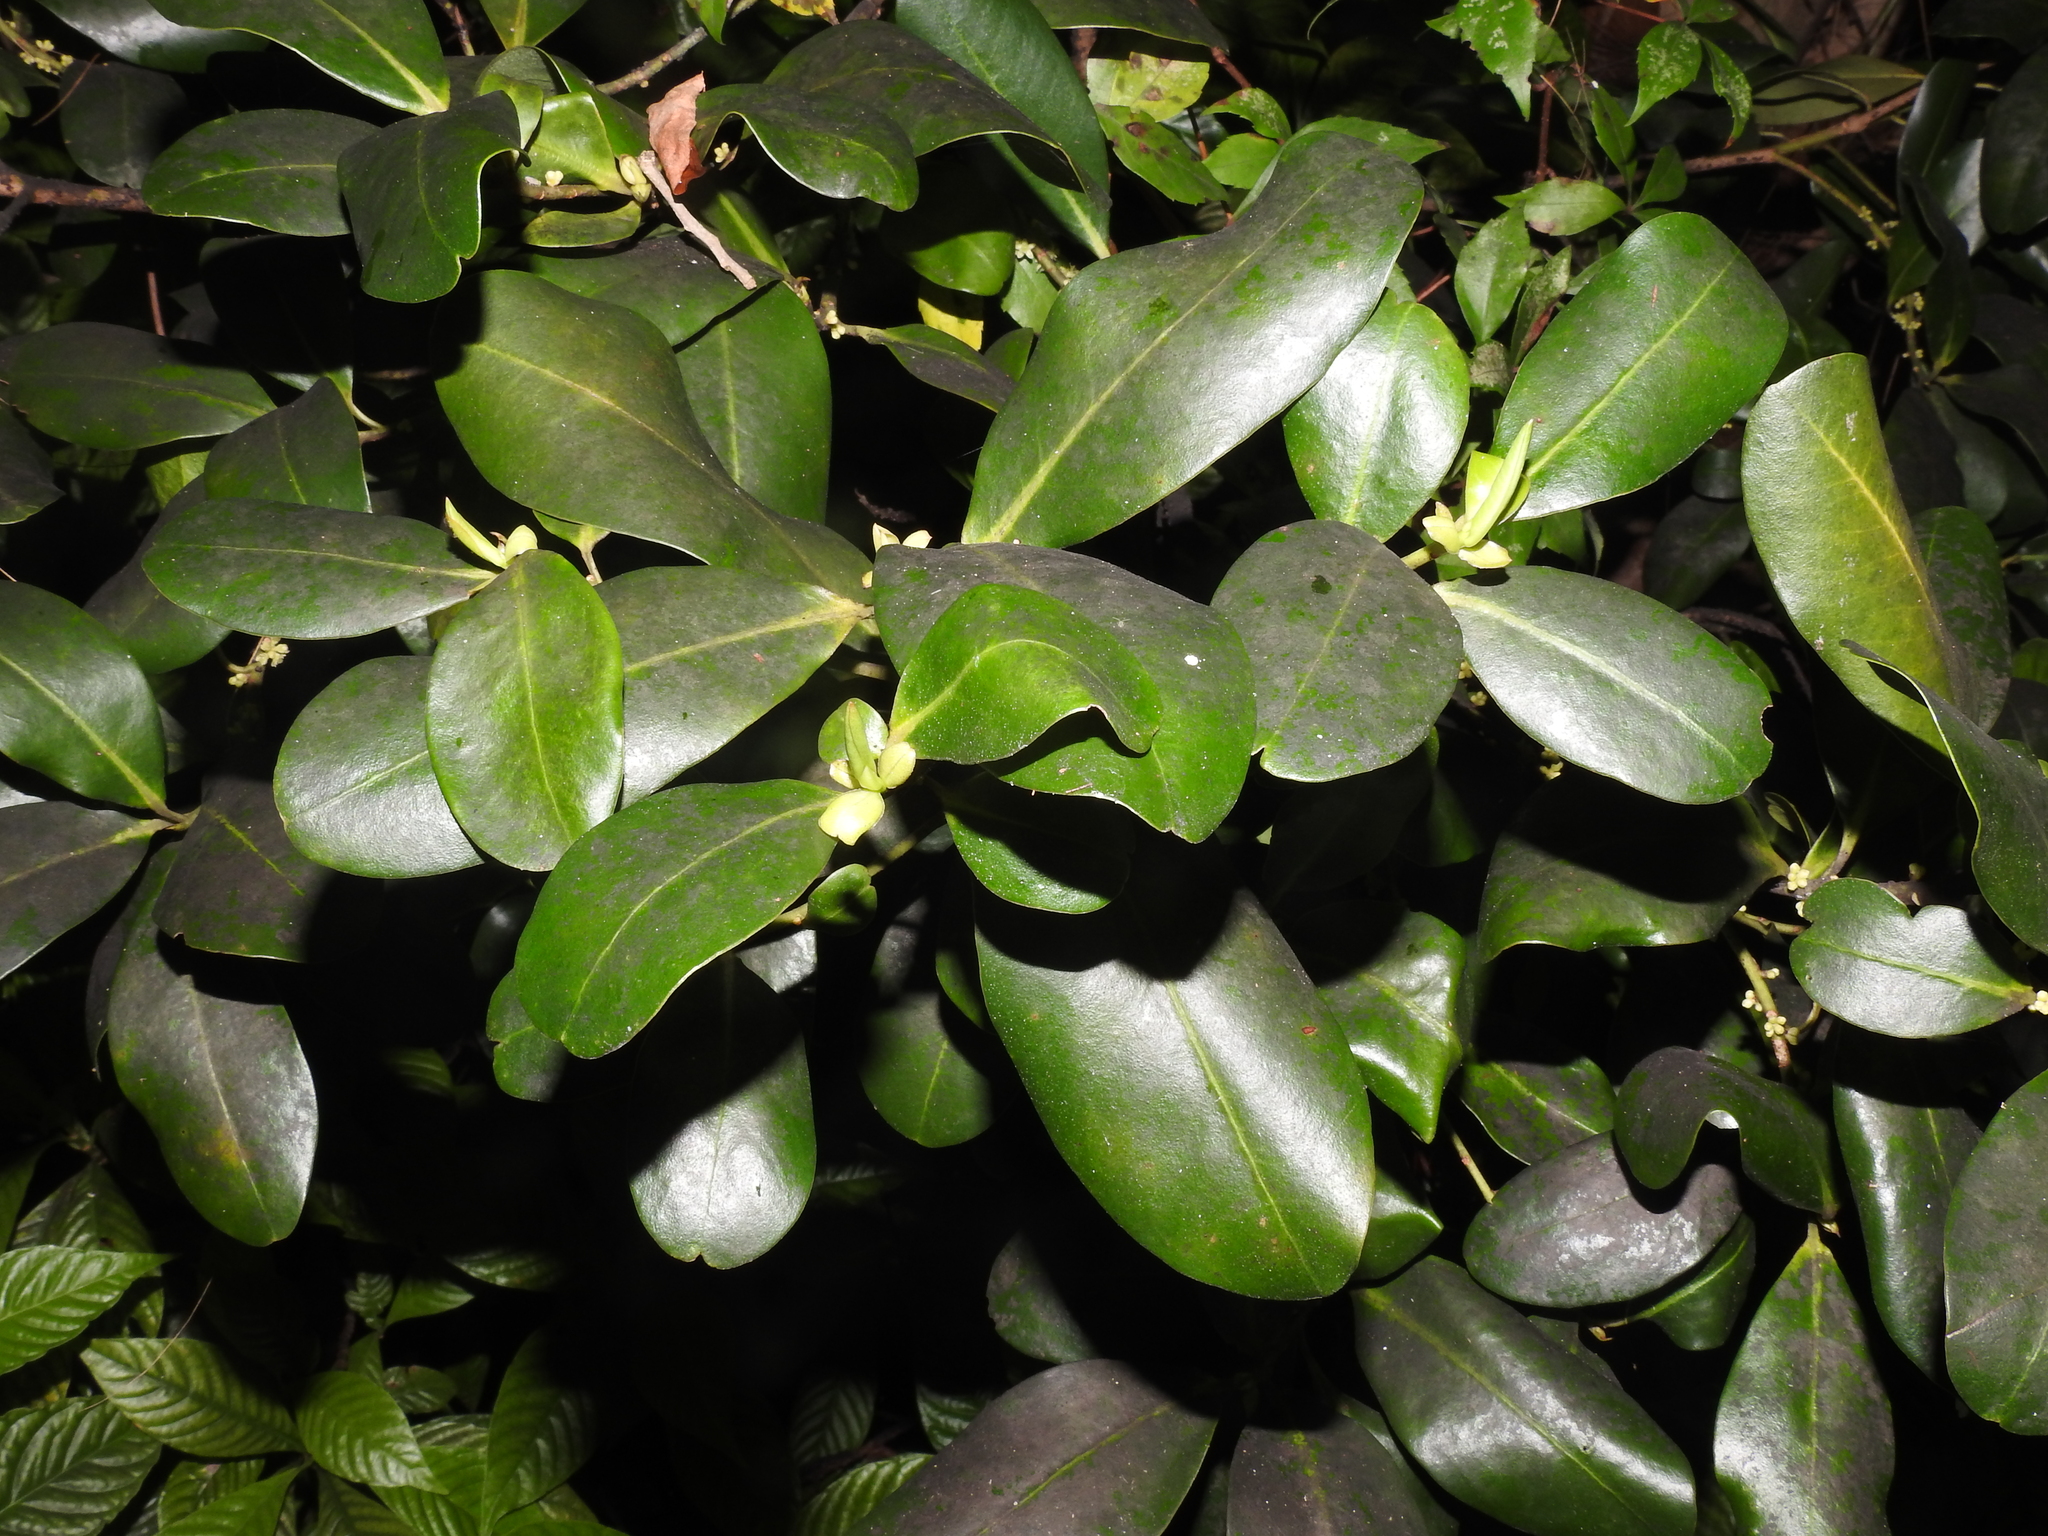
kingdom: Plantae
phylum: Tracheophyta
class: Magnoliopsida
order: Ericales
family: Primulaceae
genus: Myrsine
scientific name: Myrsine floridana
